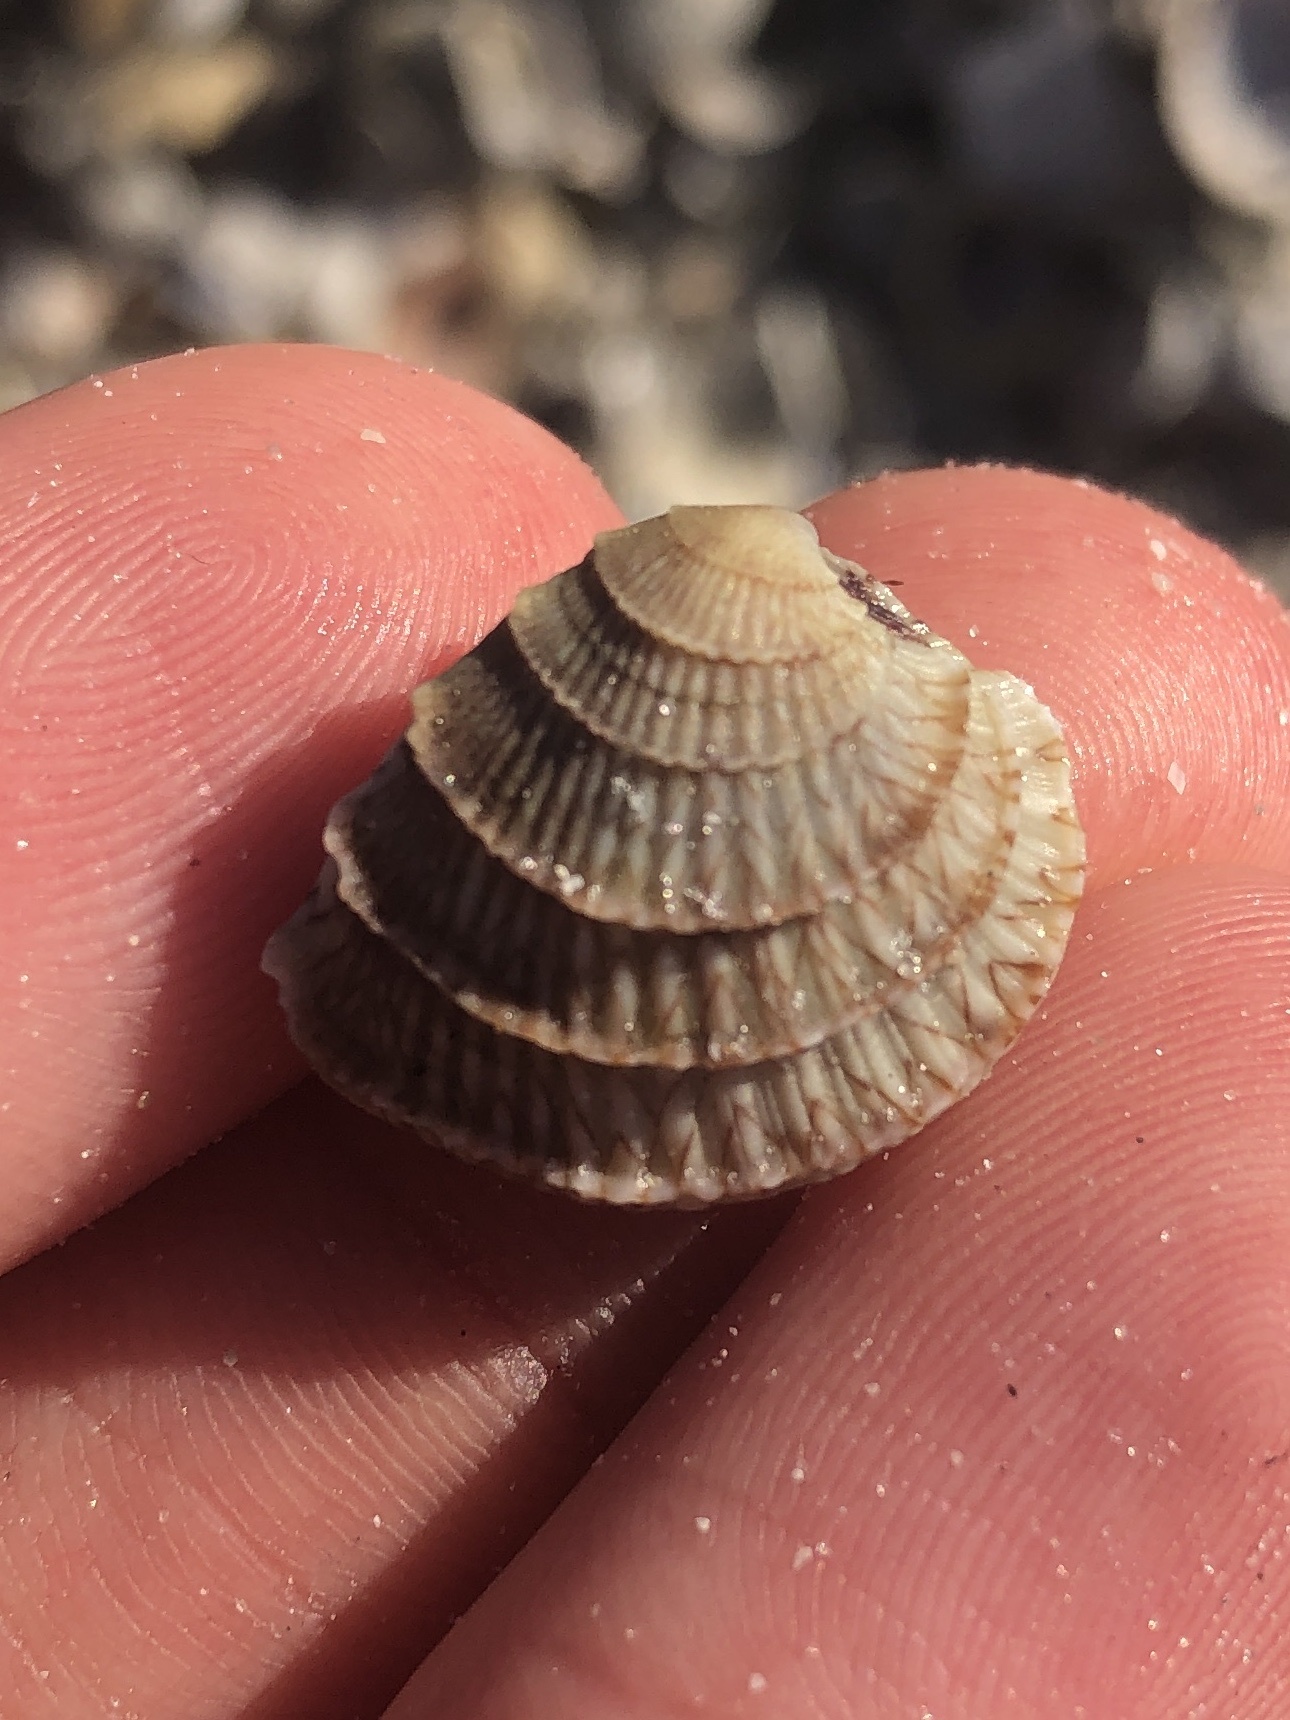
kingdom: Animalia
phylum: Mollusca
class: Bivalvia
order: Venerida
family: Veneridae
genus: Chione
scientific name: Chione elevata
